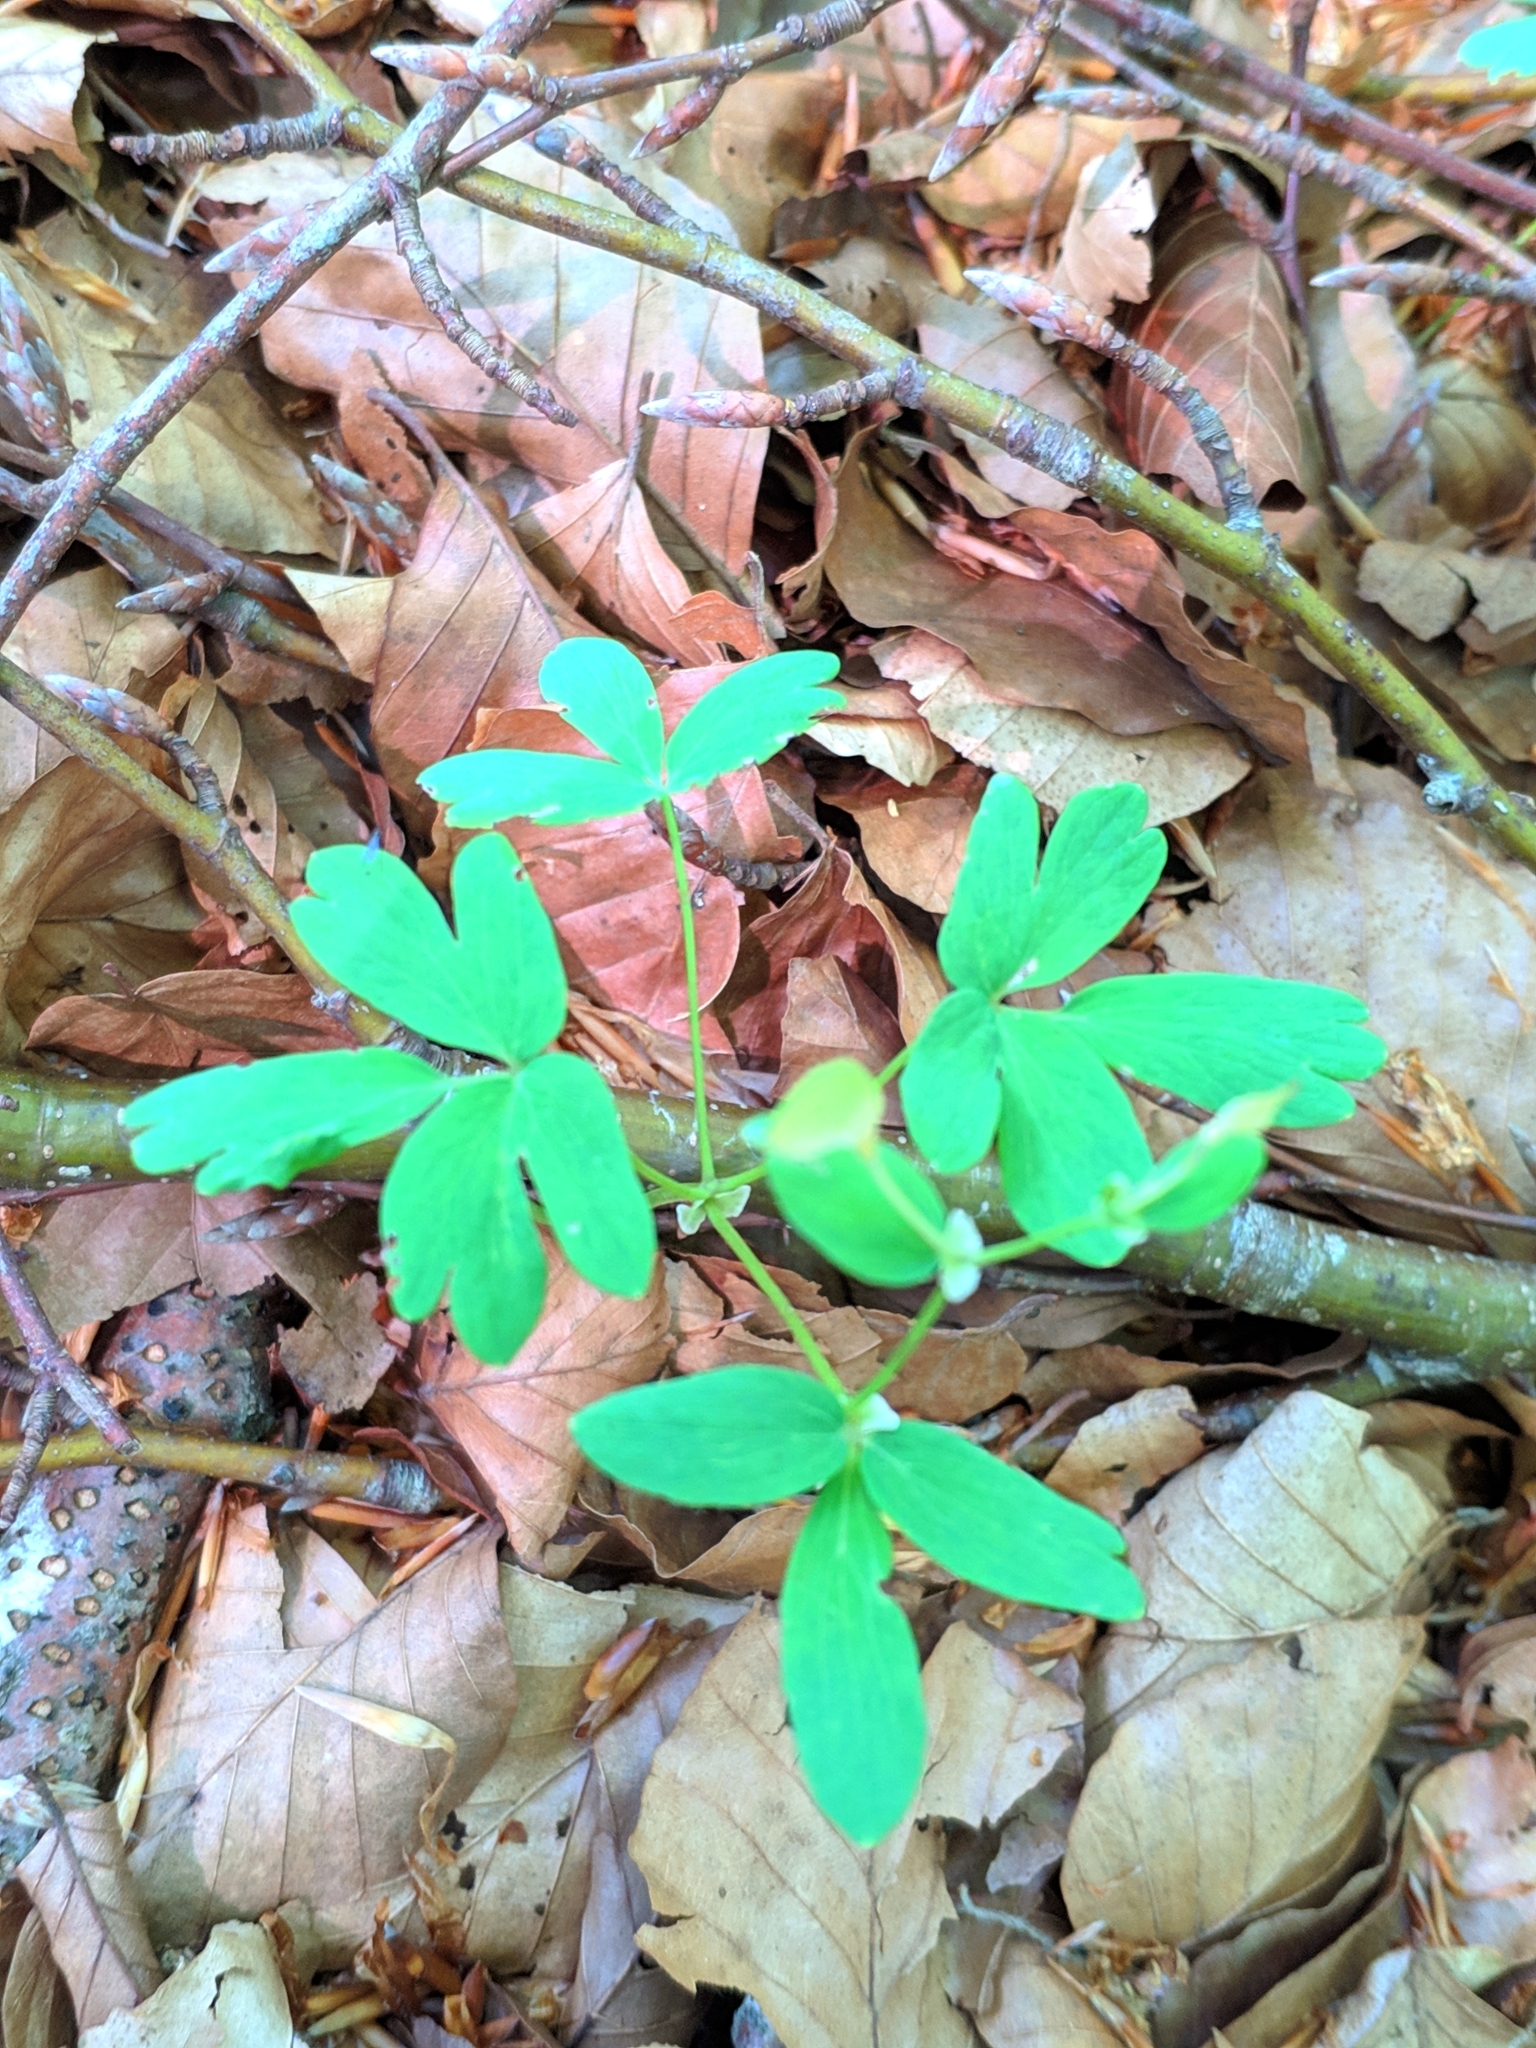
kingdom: Plantae
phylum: Tracheophyta
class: Magnoliopsida
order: Ranunculales
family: Ranunculaceae
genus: Isopyrum
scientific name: Isopyrum thalictroides
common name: Isopyrum
